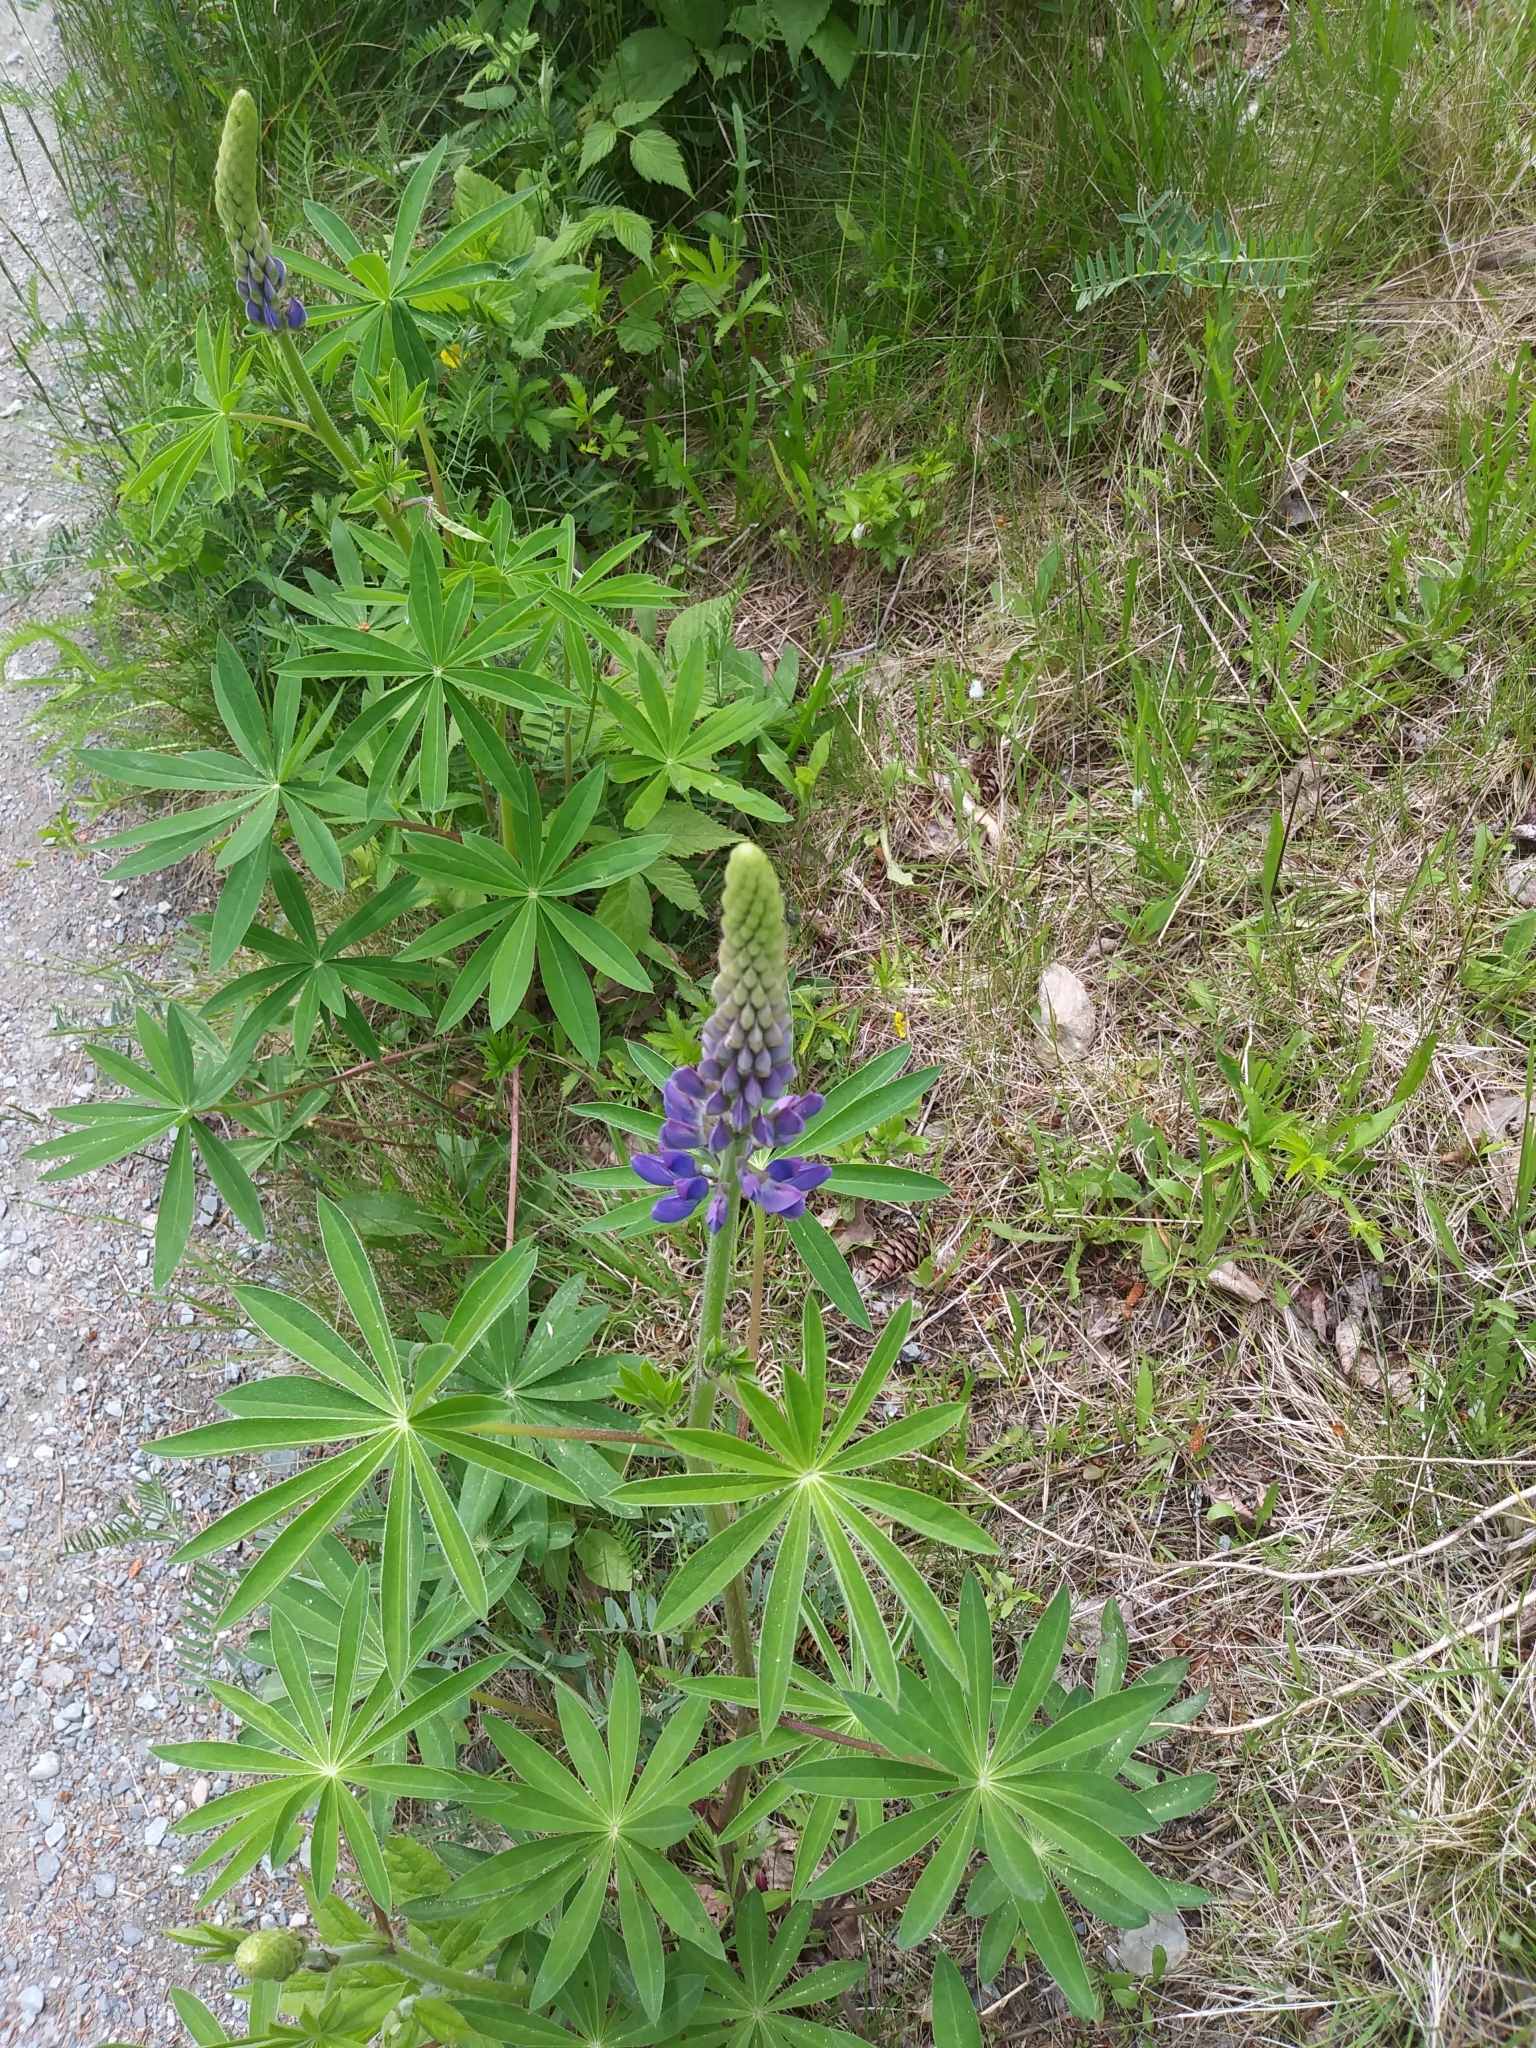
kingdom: Plantae
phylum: Tracheophyta
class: Magnoliopsida
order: Fabales
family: Fabaceae
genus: Lupinus
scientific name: Lupinus polyphyllus
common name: Garden lupin
